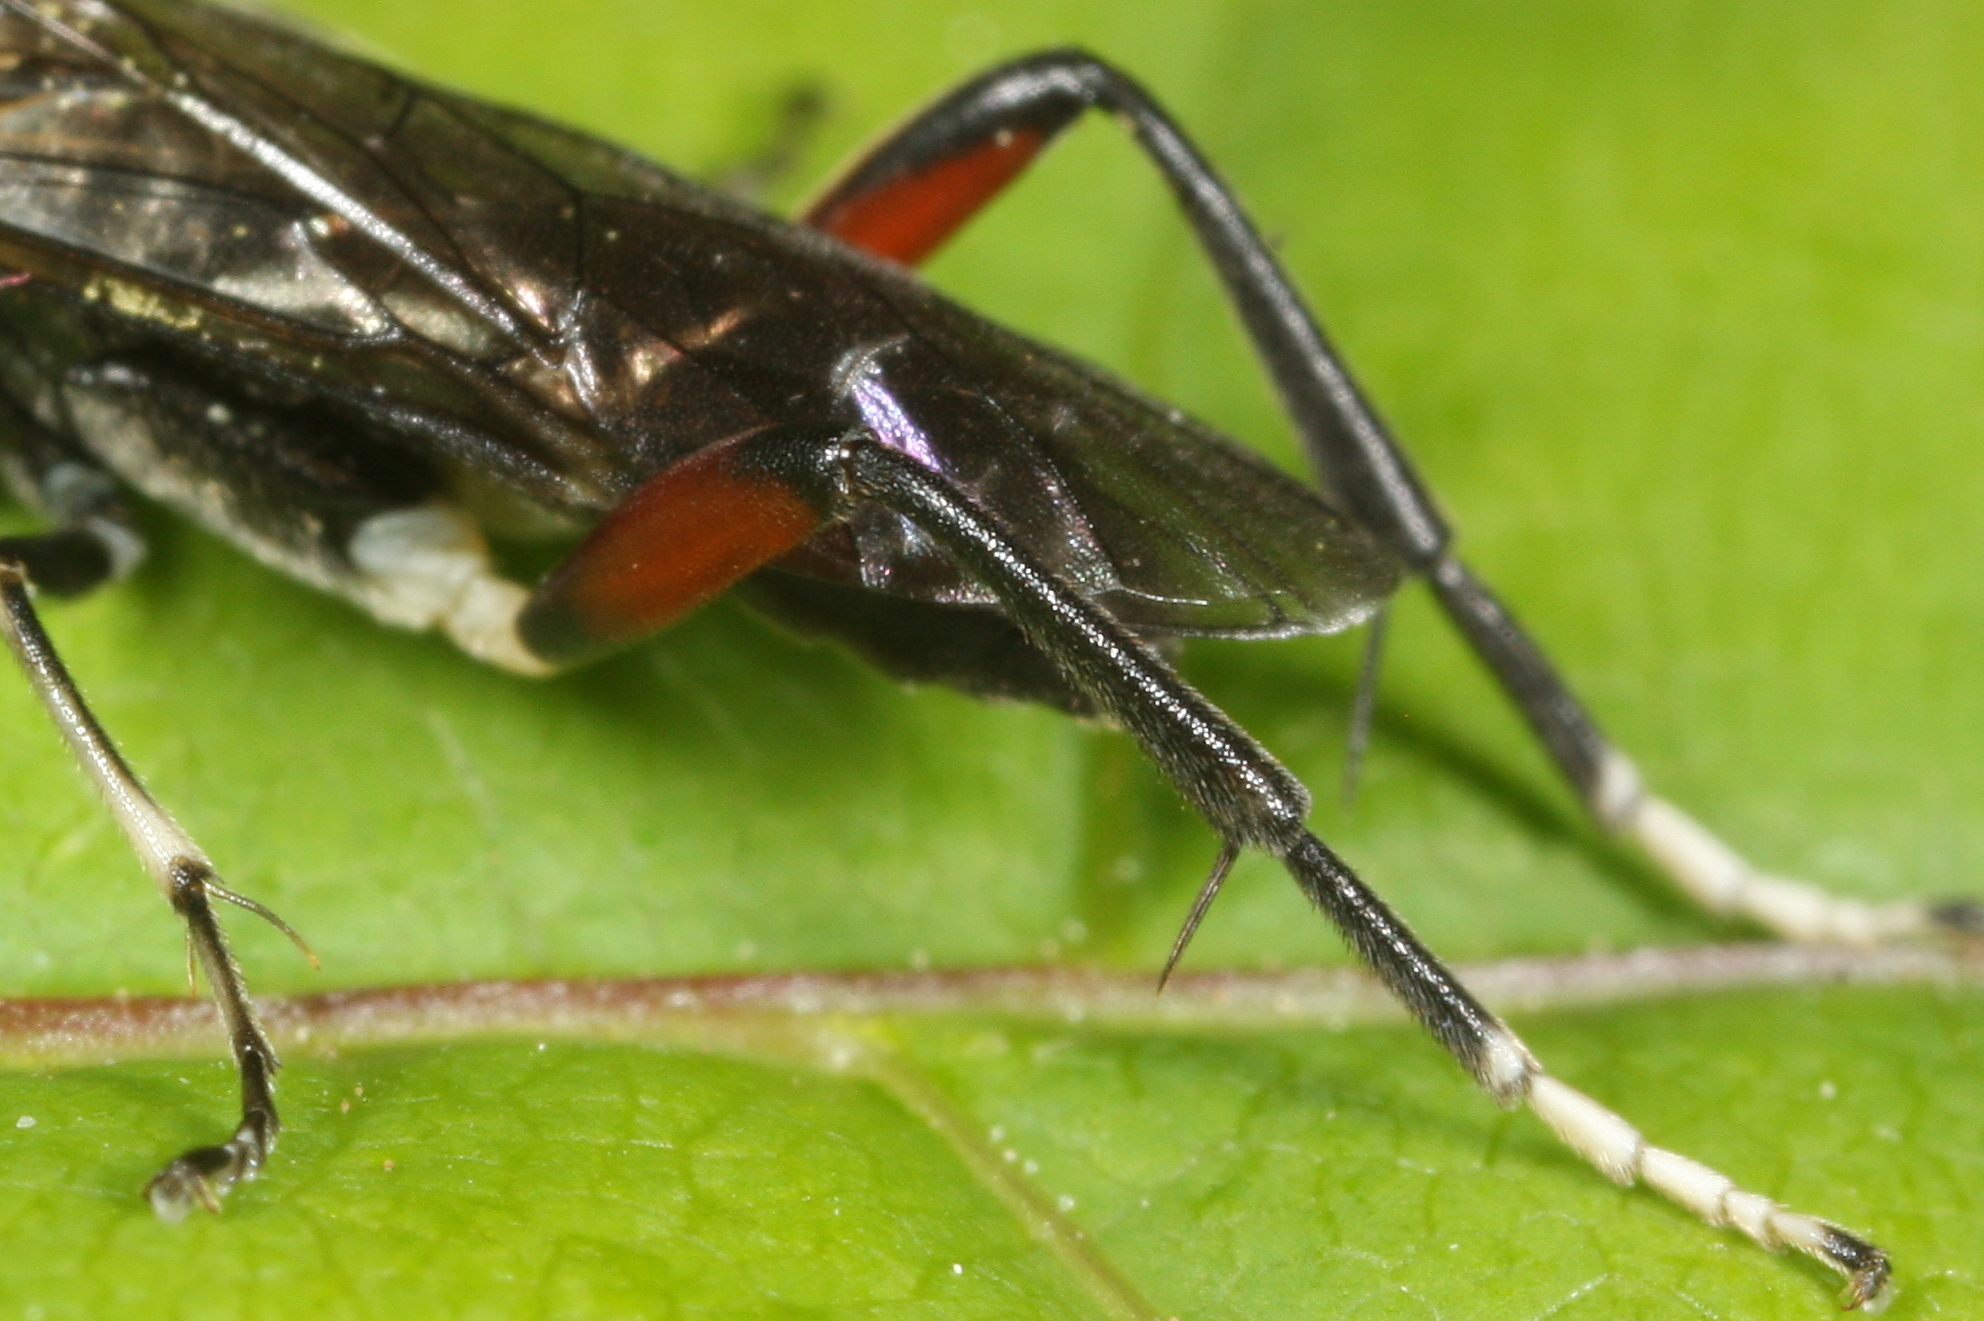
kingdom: Animalia
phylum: Arthropoda
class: Insecta
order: Hymenoptera
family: Tenthredinidae
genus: Macrophya
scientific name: Macrophya sanguinolenta
